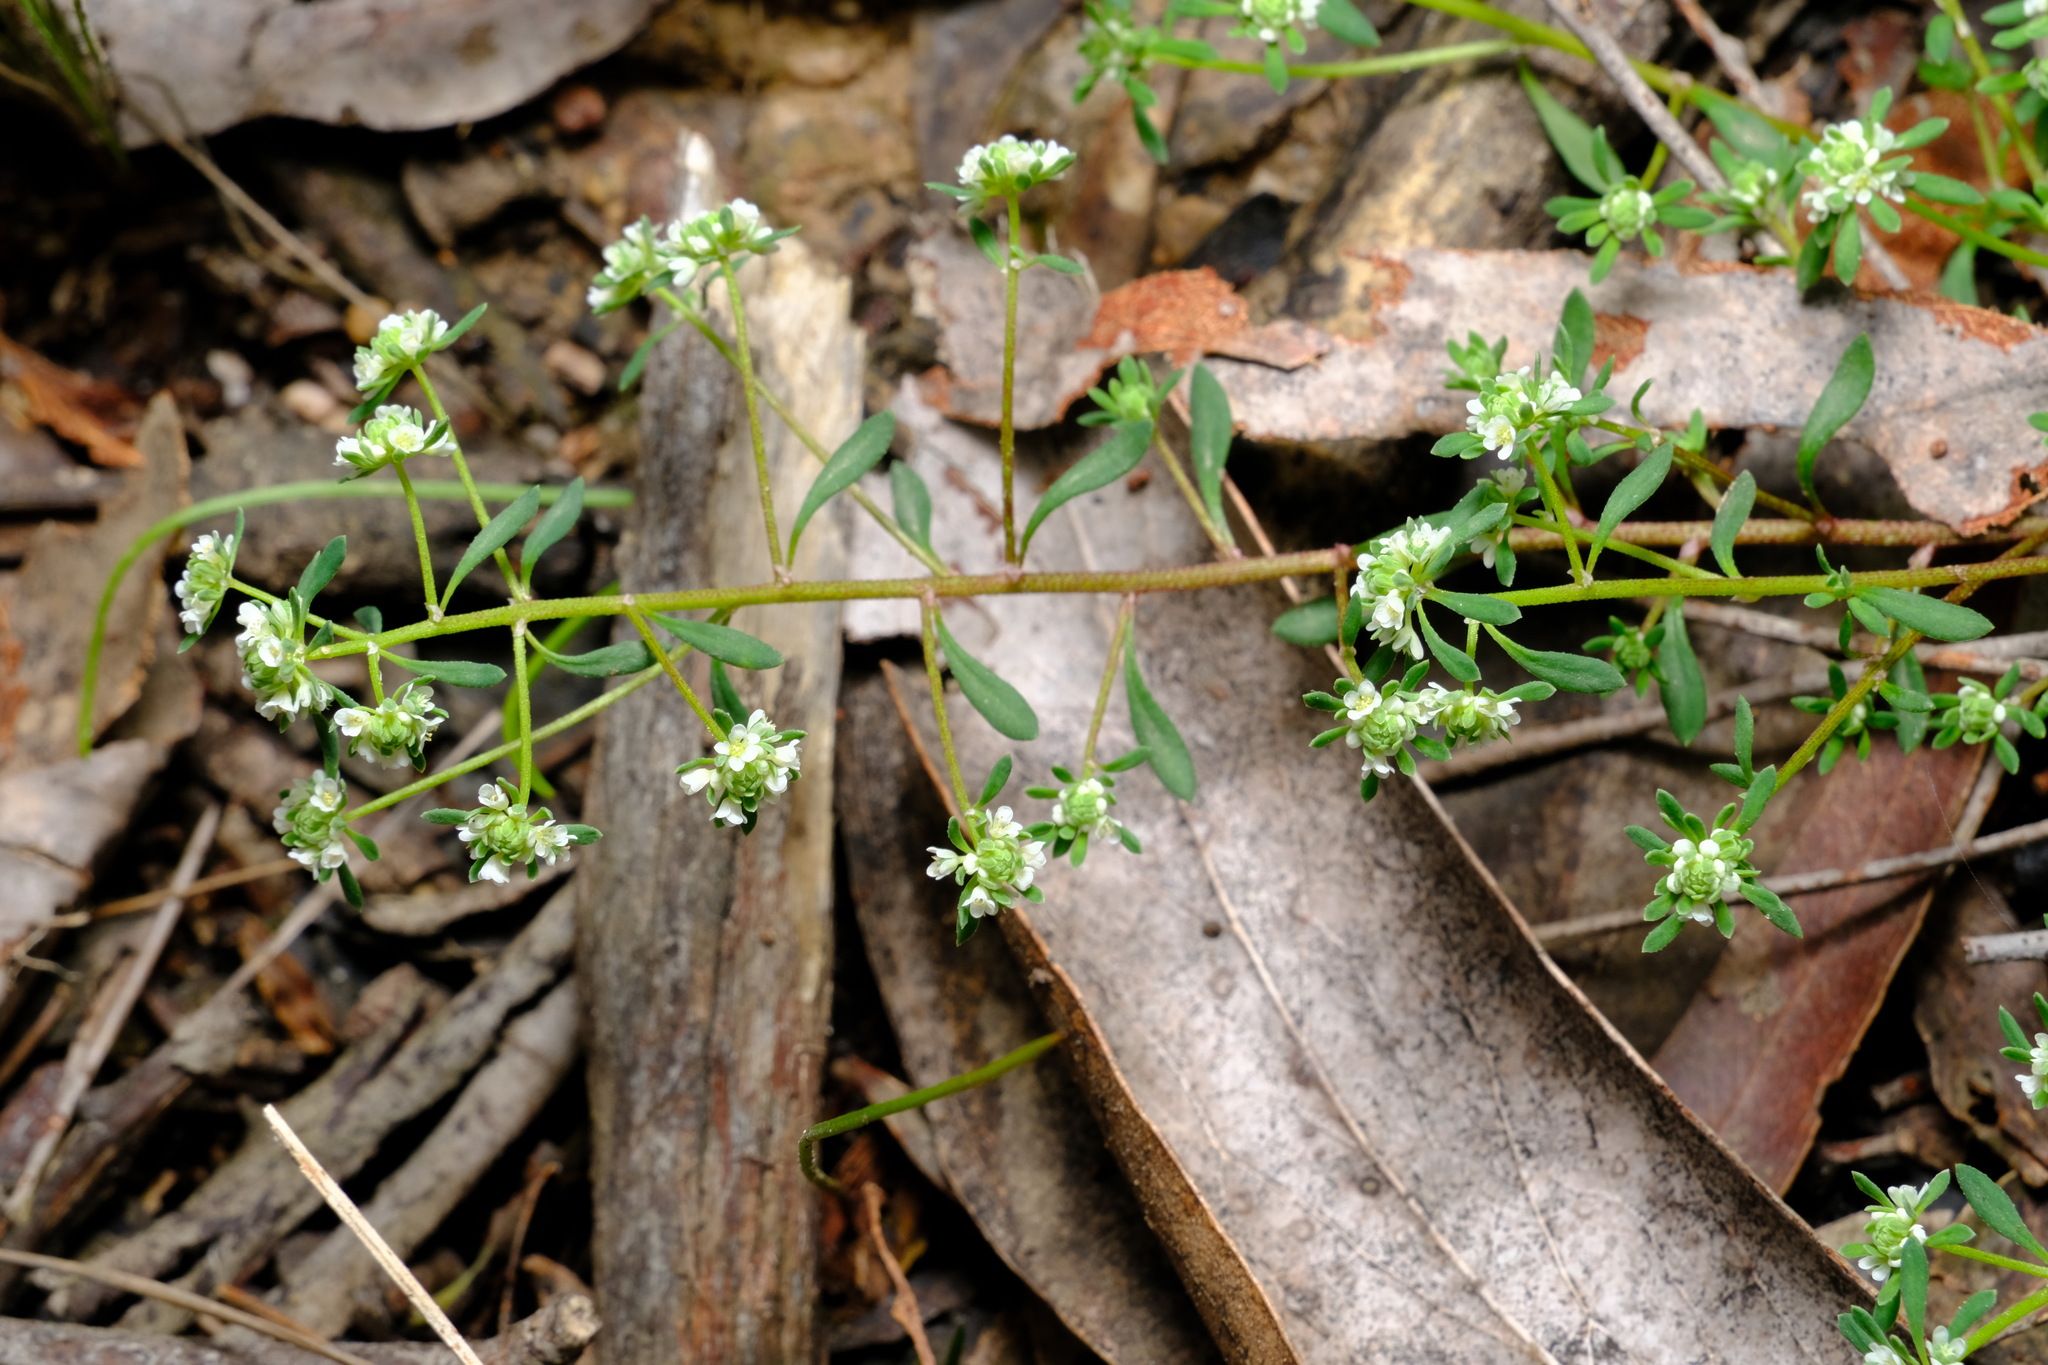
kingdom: Plantae
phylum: Tracheophyta
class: Magnoliopsida
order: Malpighiales
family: Phyllanthaceae
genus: Poranthera
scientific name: Poranthera microphylla
